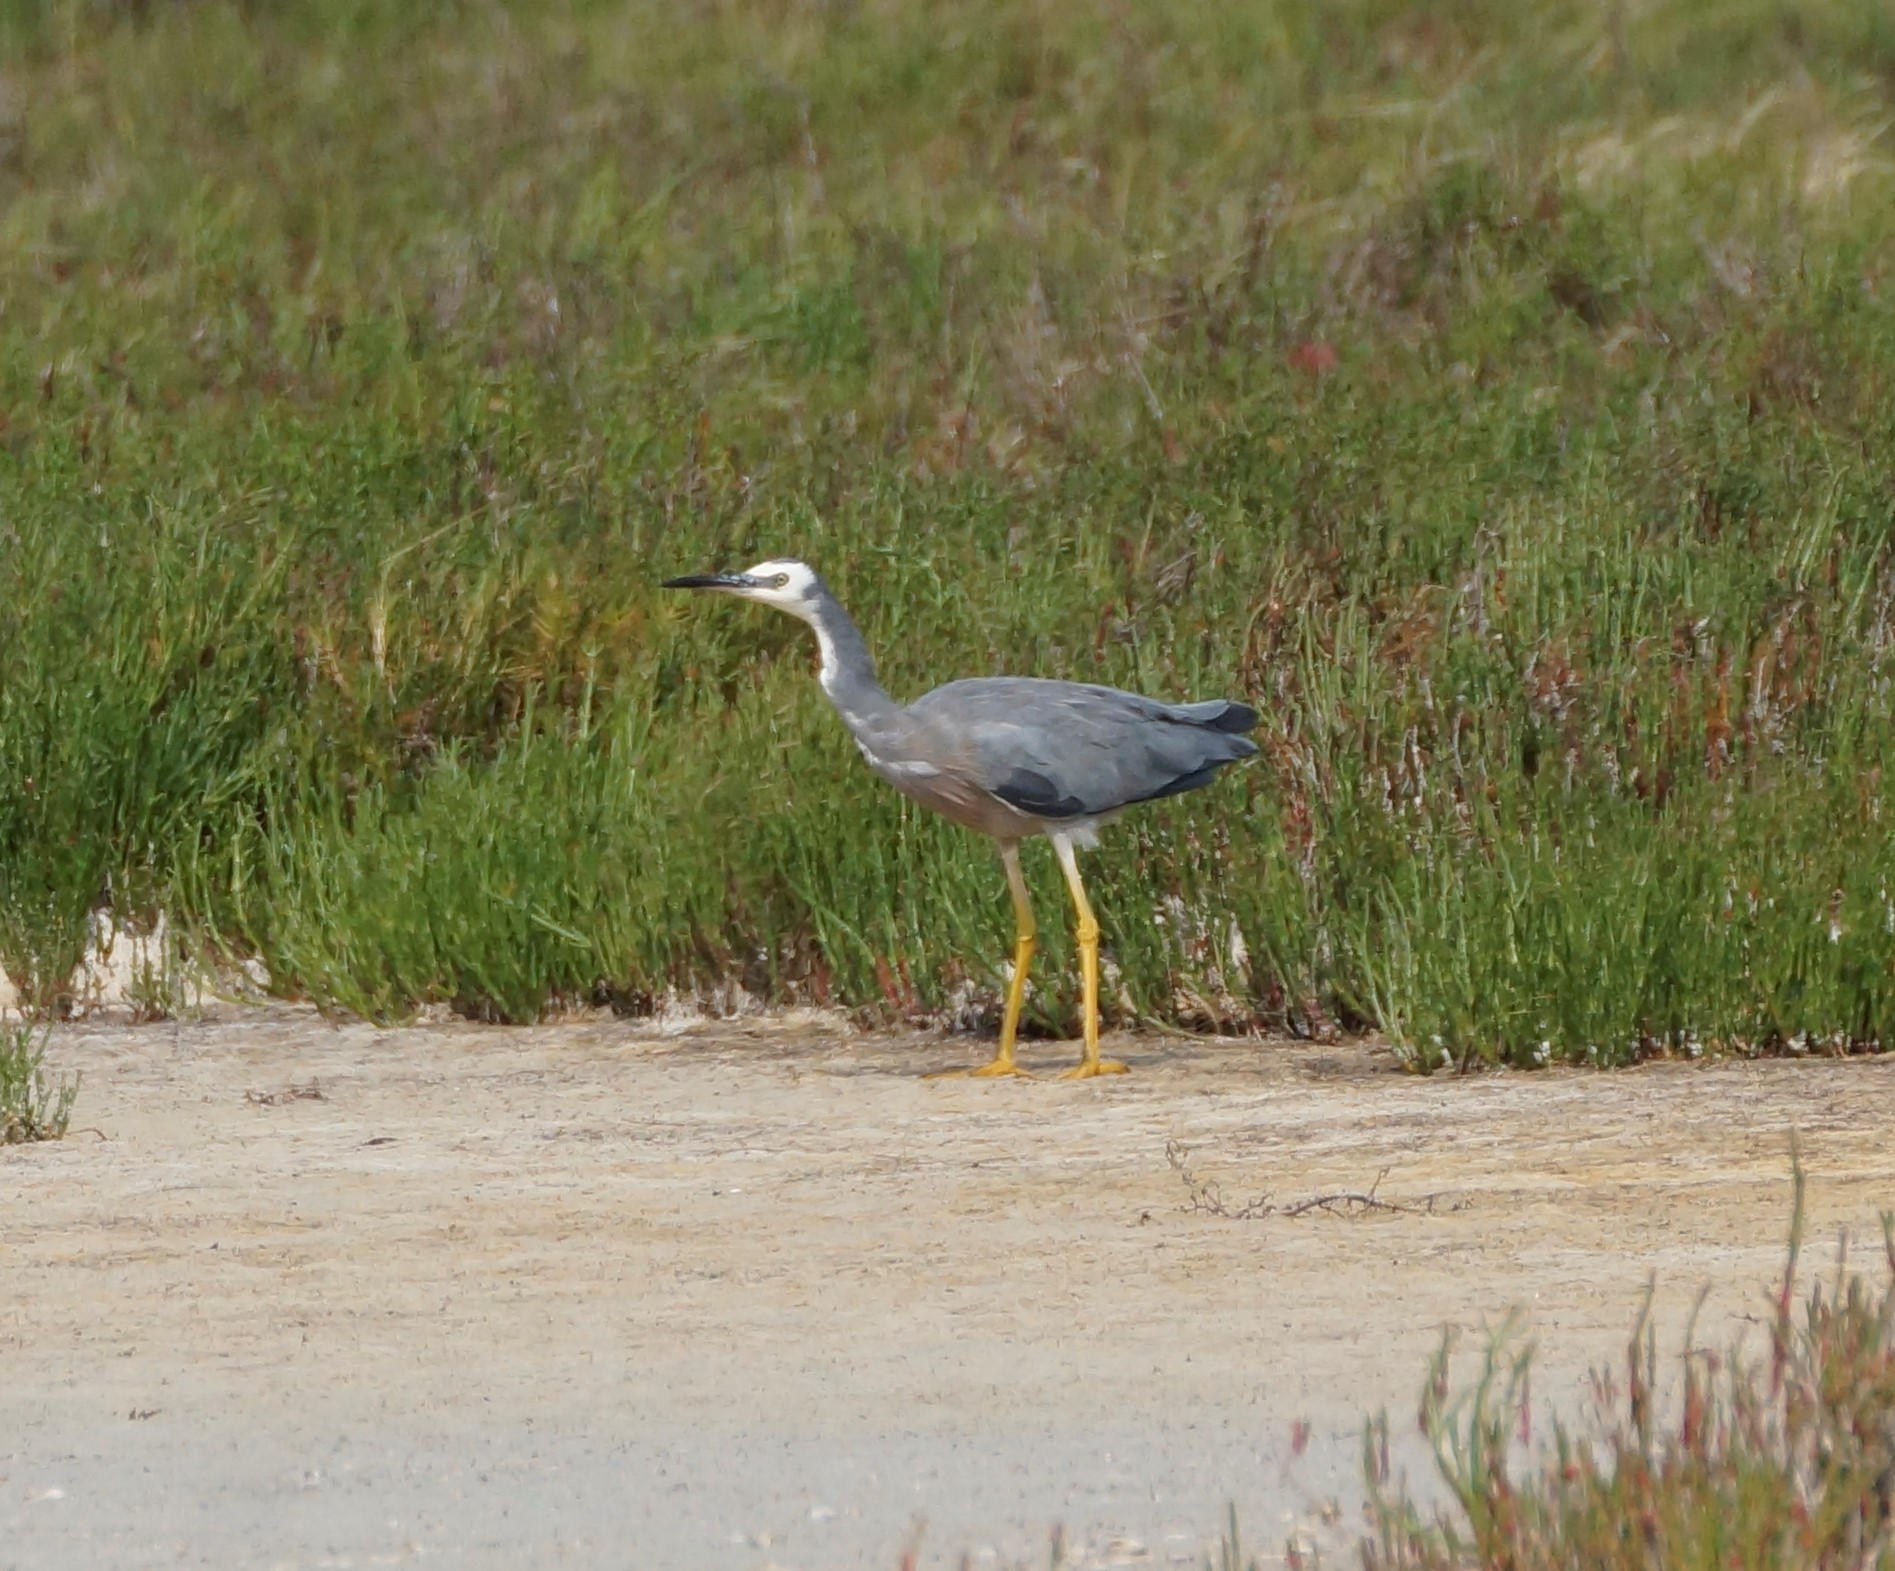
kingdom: Animalia
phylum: Chordata
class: Aves
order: Pelecaniformes
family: Ardeidae
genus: Egretta
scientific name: Egretta novaehollandiae
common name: White-faced heron
